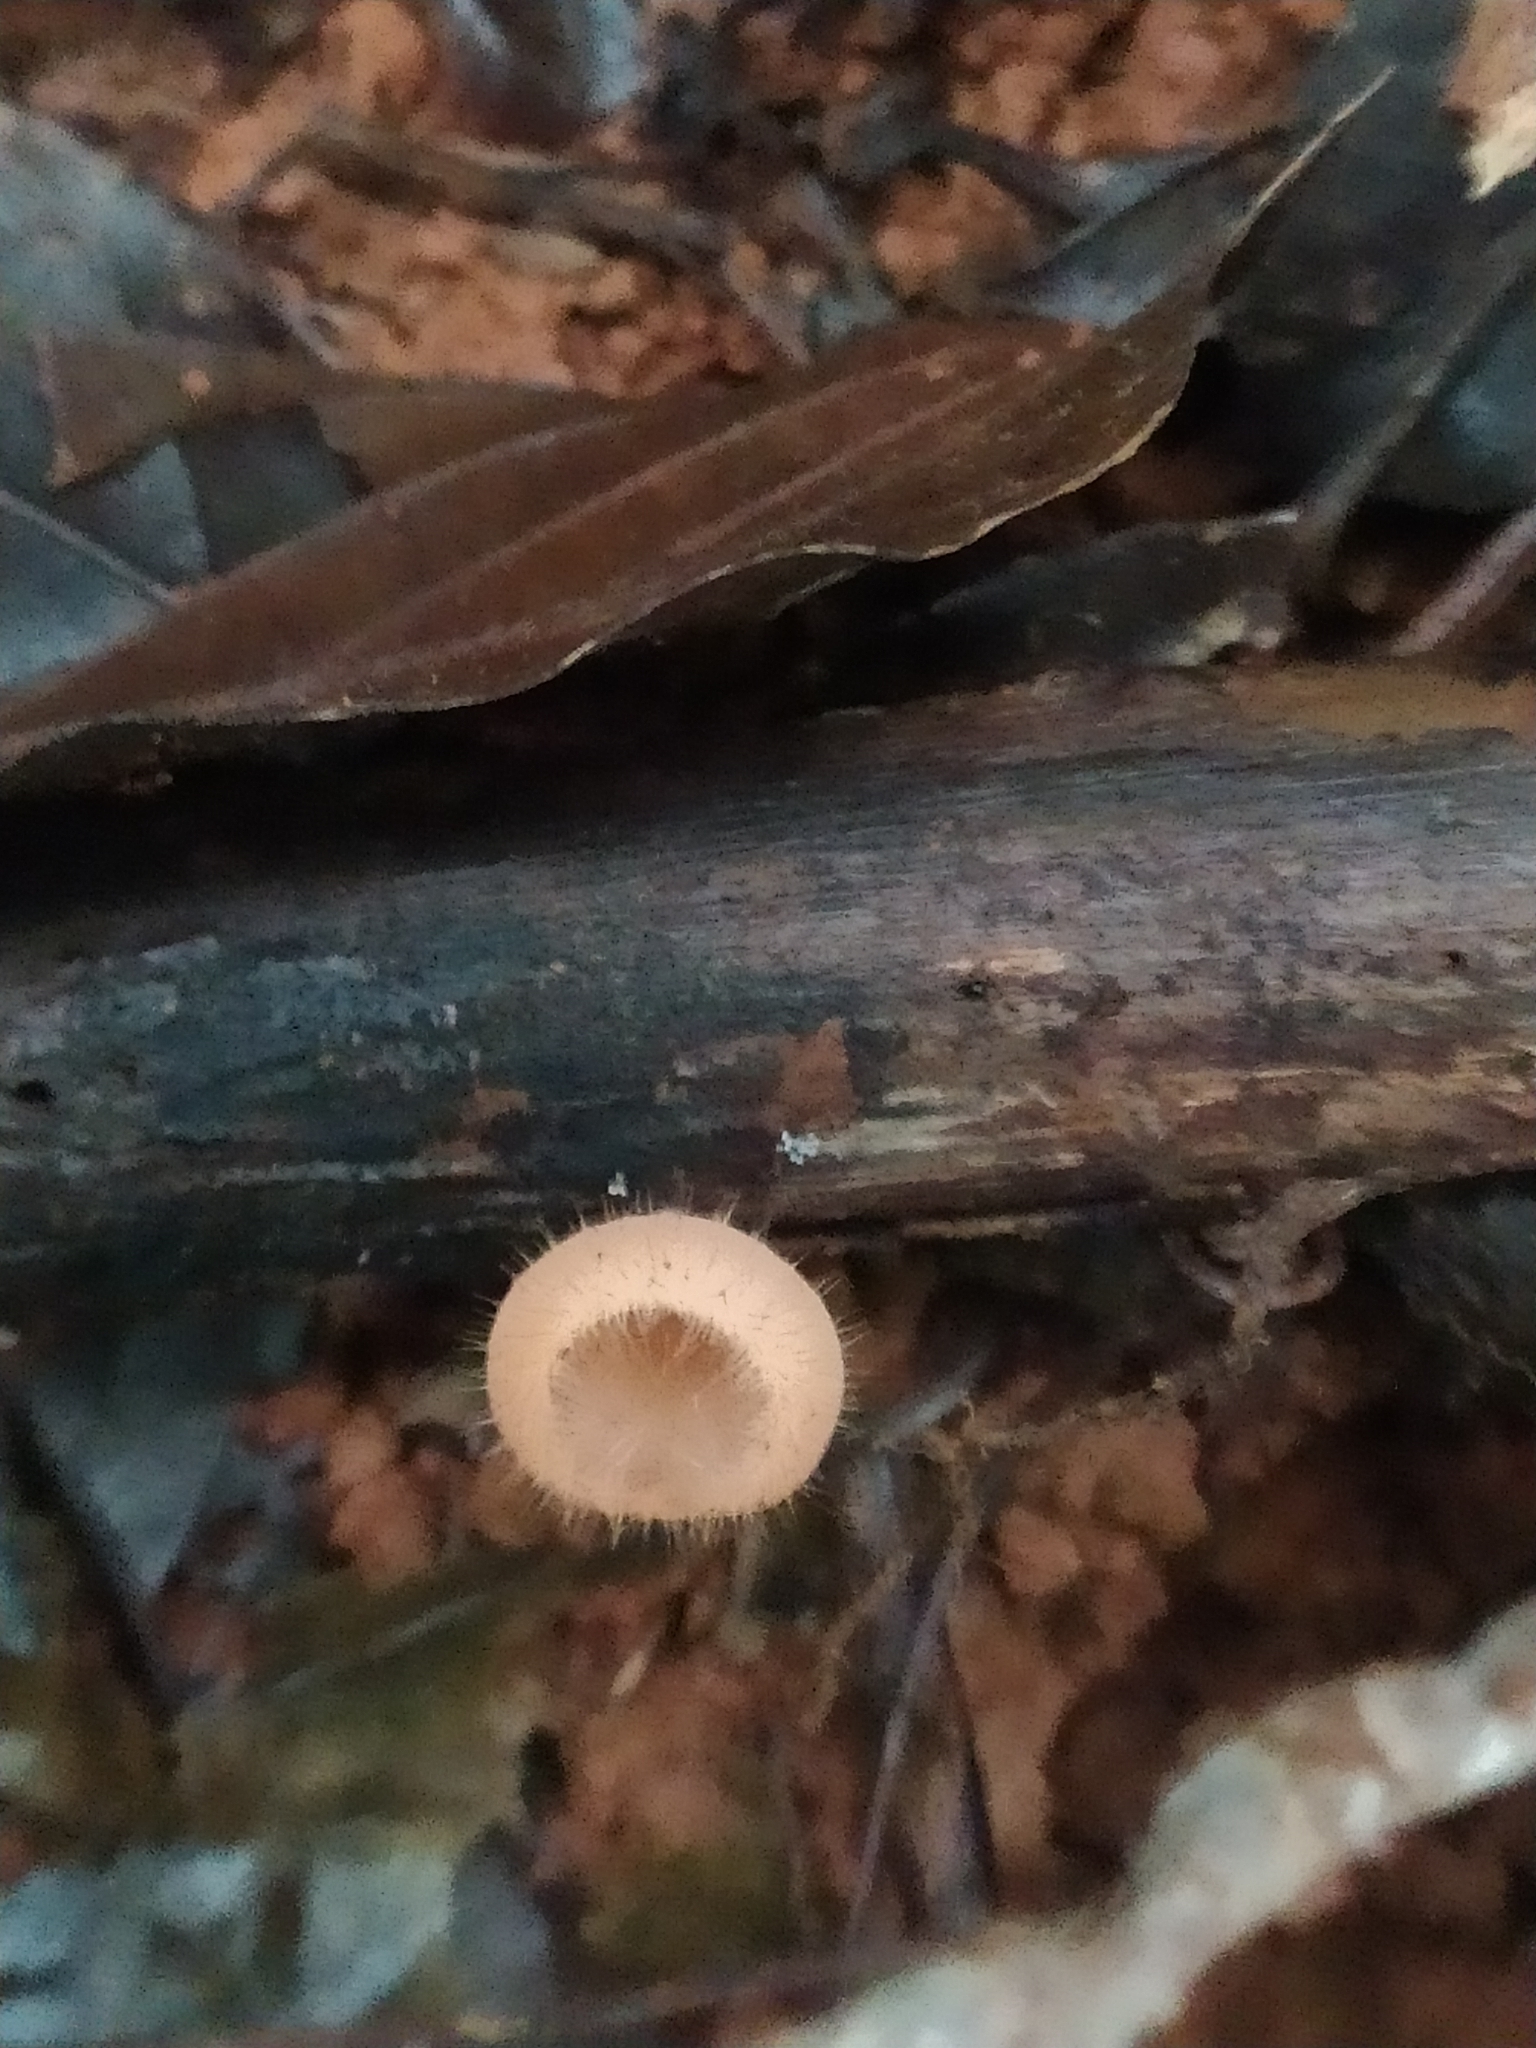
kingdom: Fungi
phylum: Ascomycota
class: Pezizomycetes
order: Pezizales
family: Sarcoscyphaceae
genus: Cookeina
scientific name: Cookeina tricholoma
